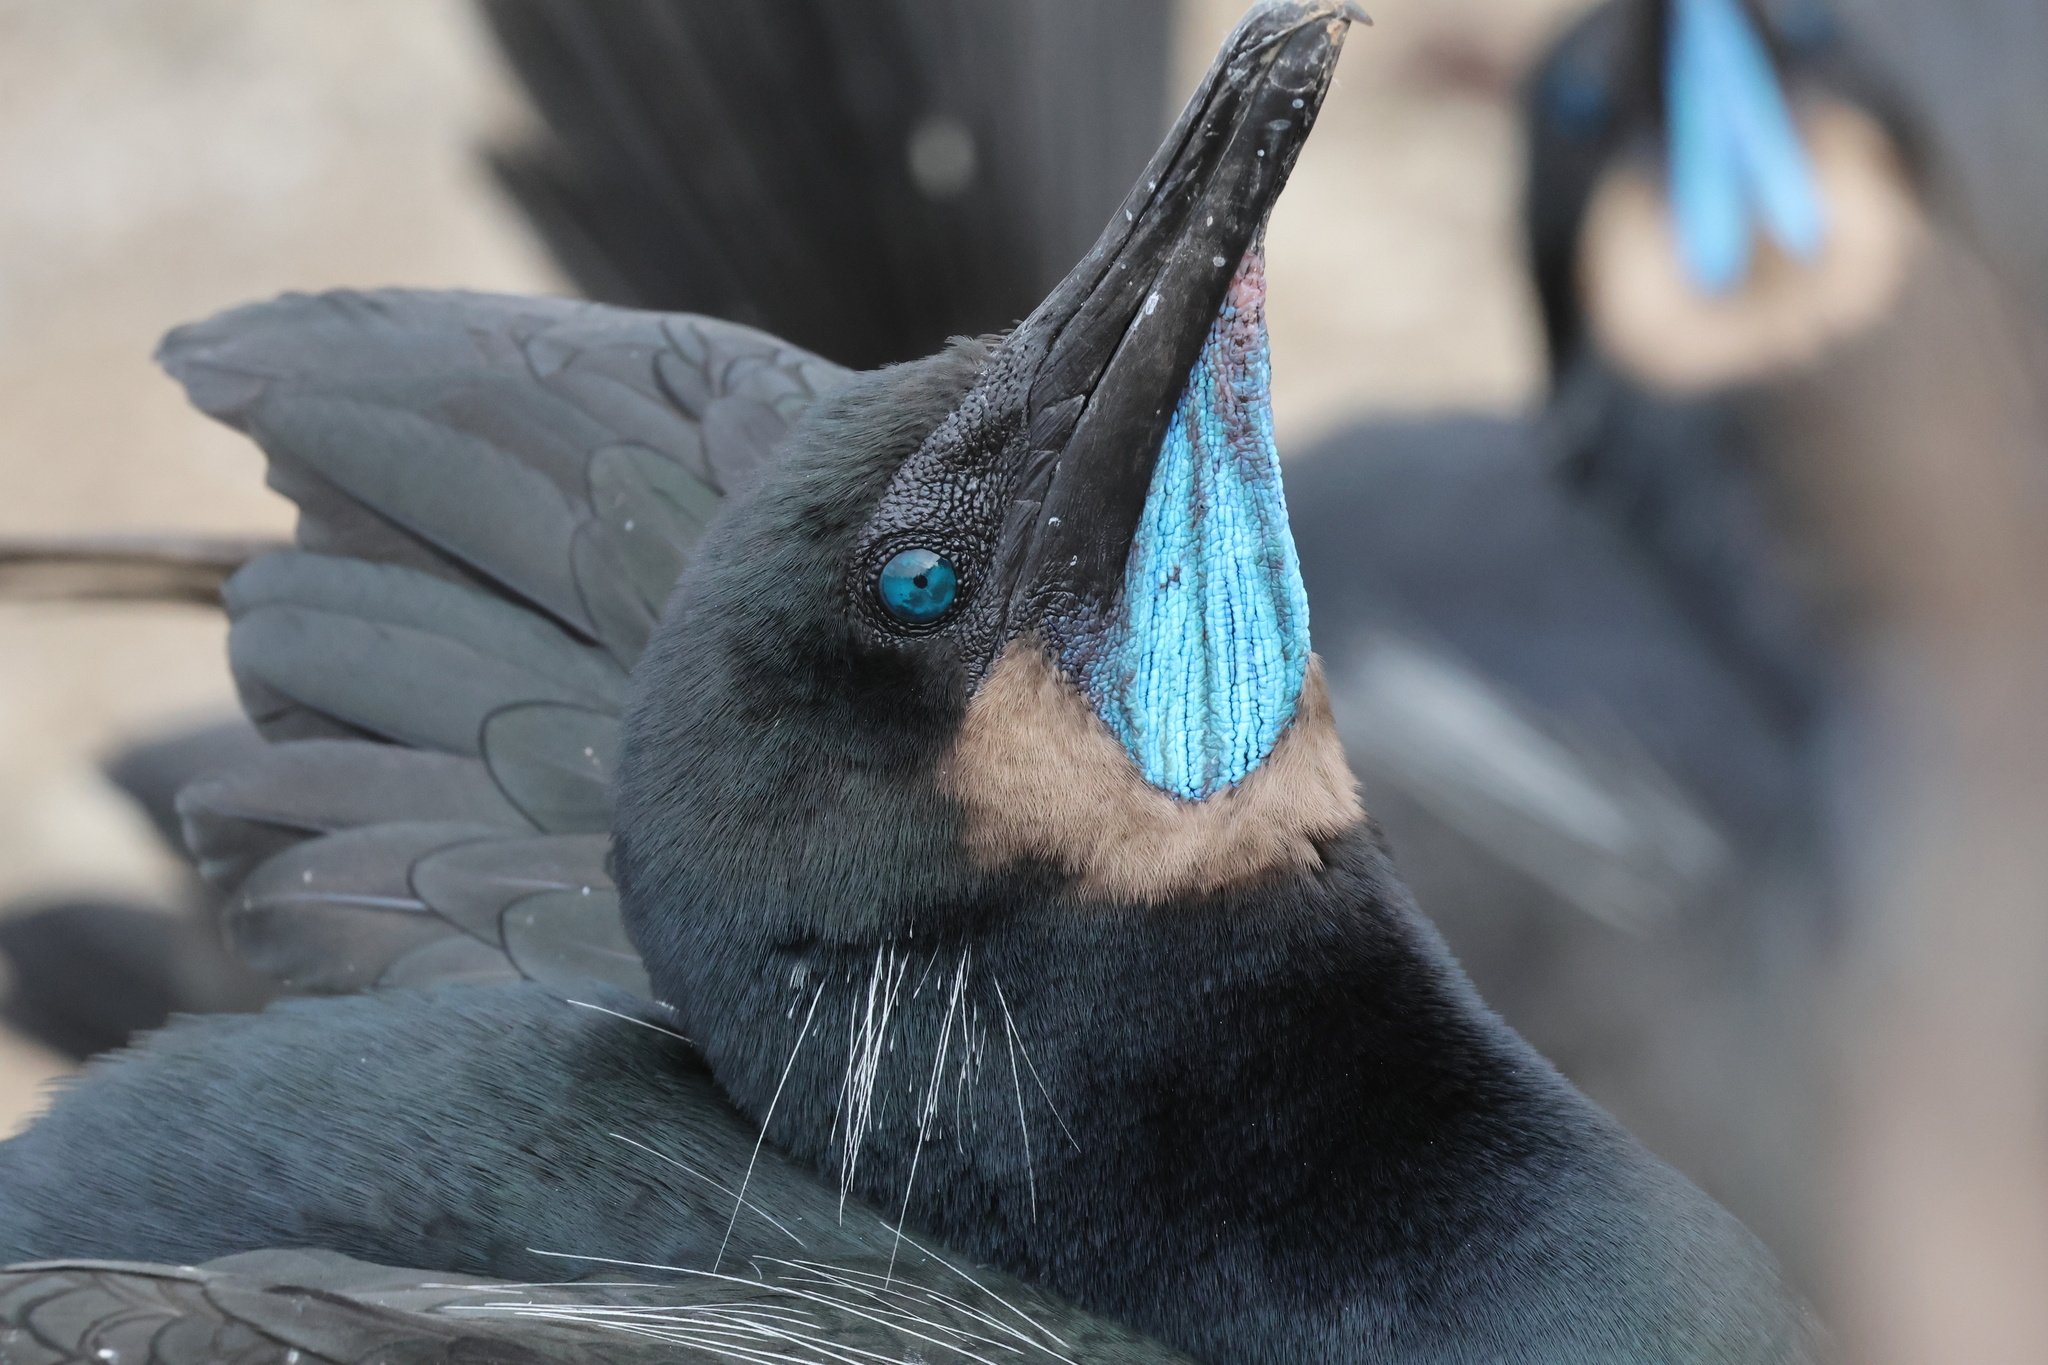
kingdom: Animalia
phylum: Chordata
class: Aves
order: Suliformes
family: Phalacrocoracidae
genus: Urile
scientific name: Urile penicillatus
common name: Brandt's cormorant
